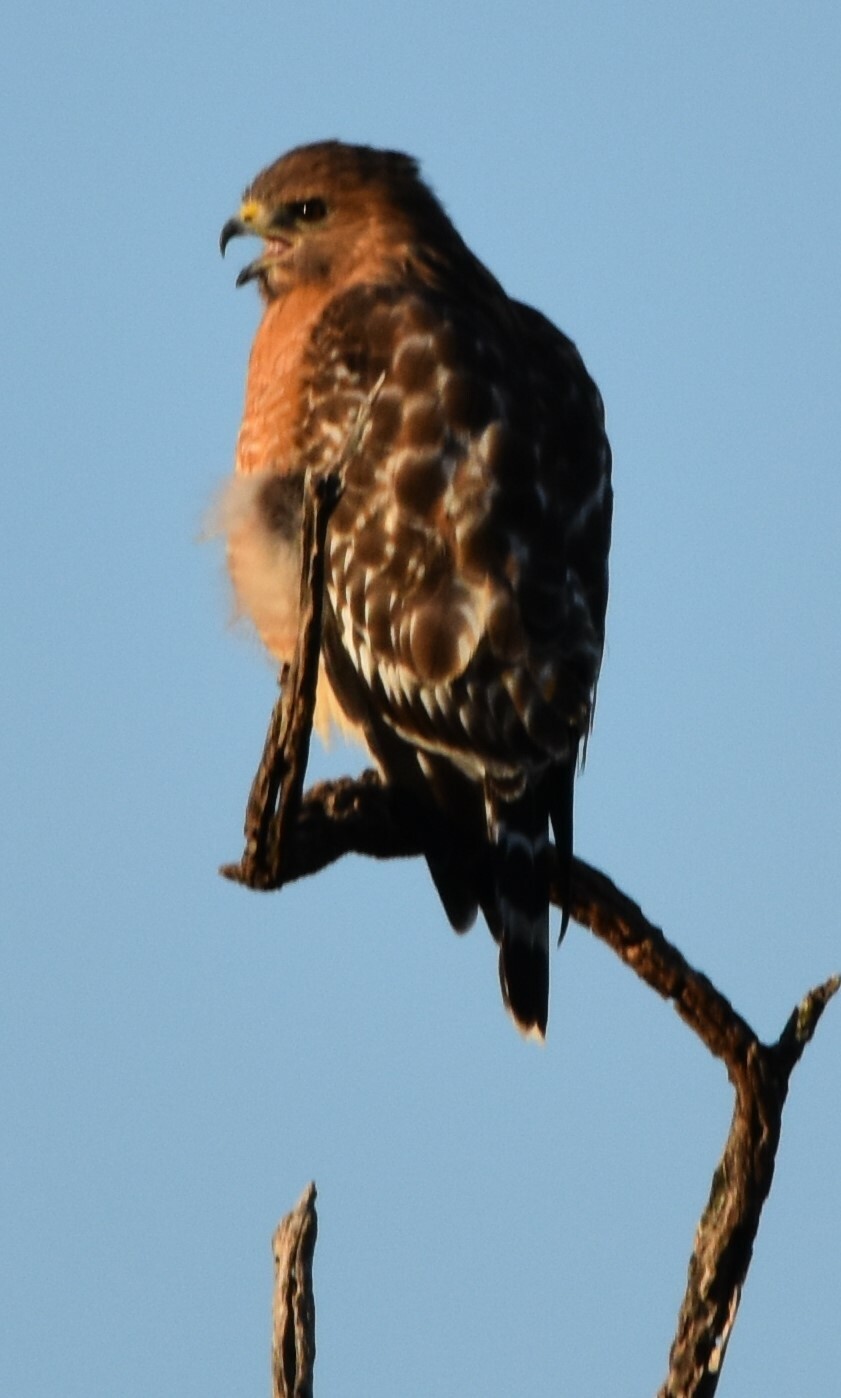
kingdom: Animalia
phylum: Chordata
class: Aves
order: Accipitriformes
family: Accipitridae
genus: Buteo
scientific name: Buteo lineatus
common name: Red-shouldered hawk
